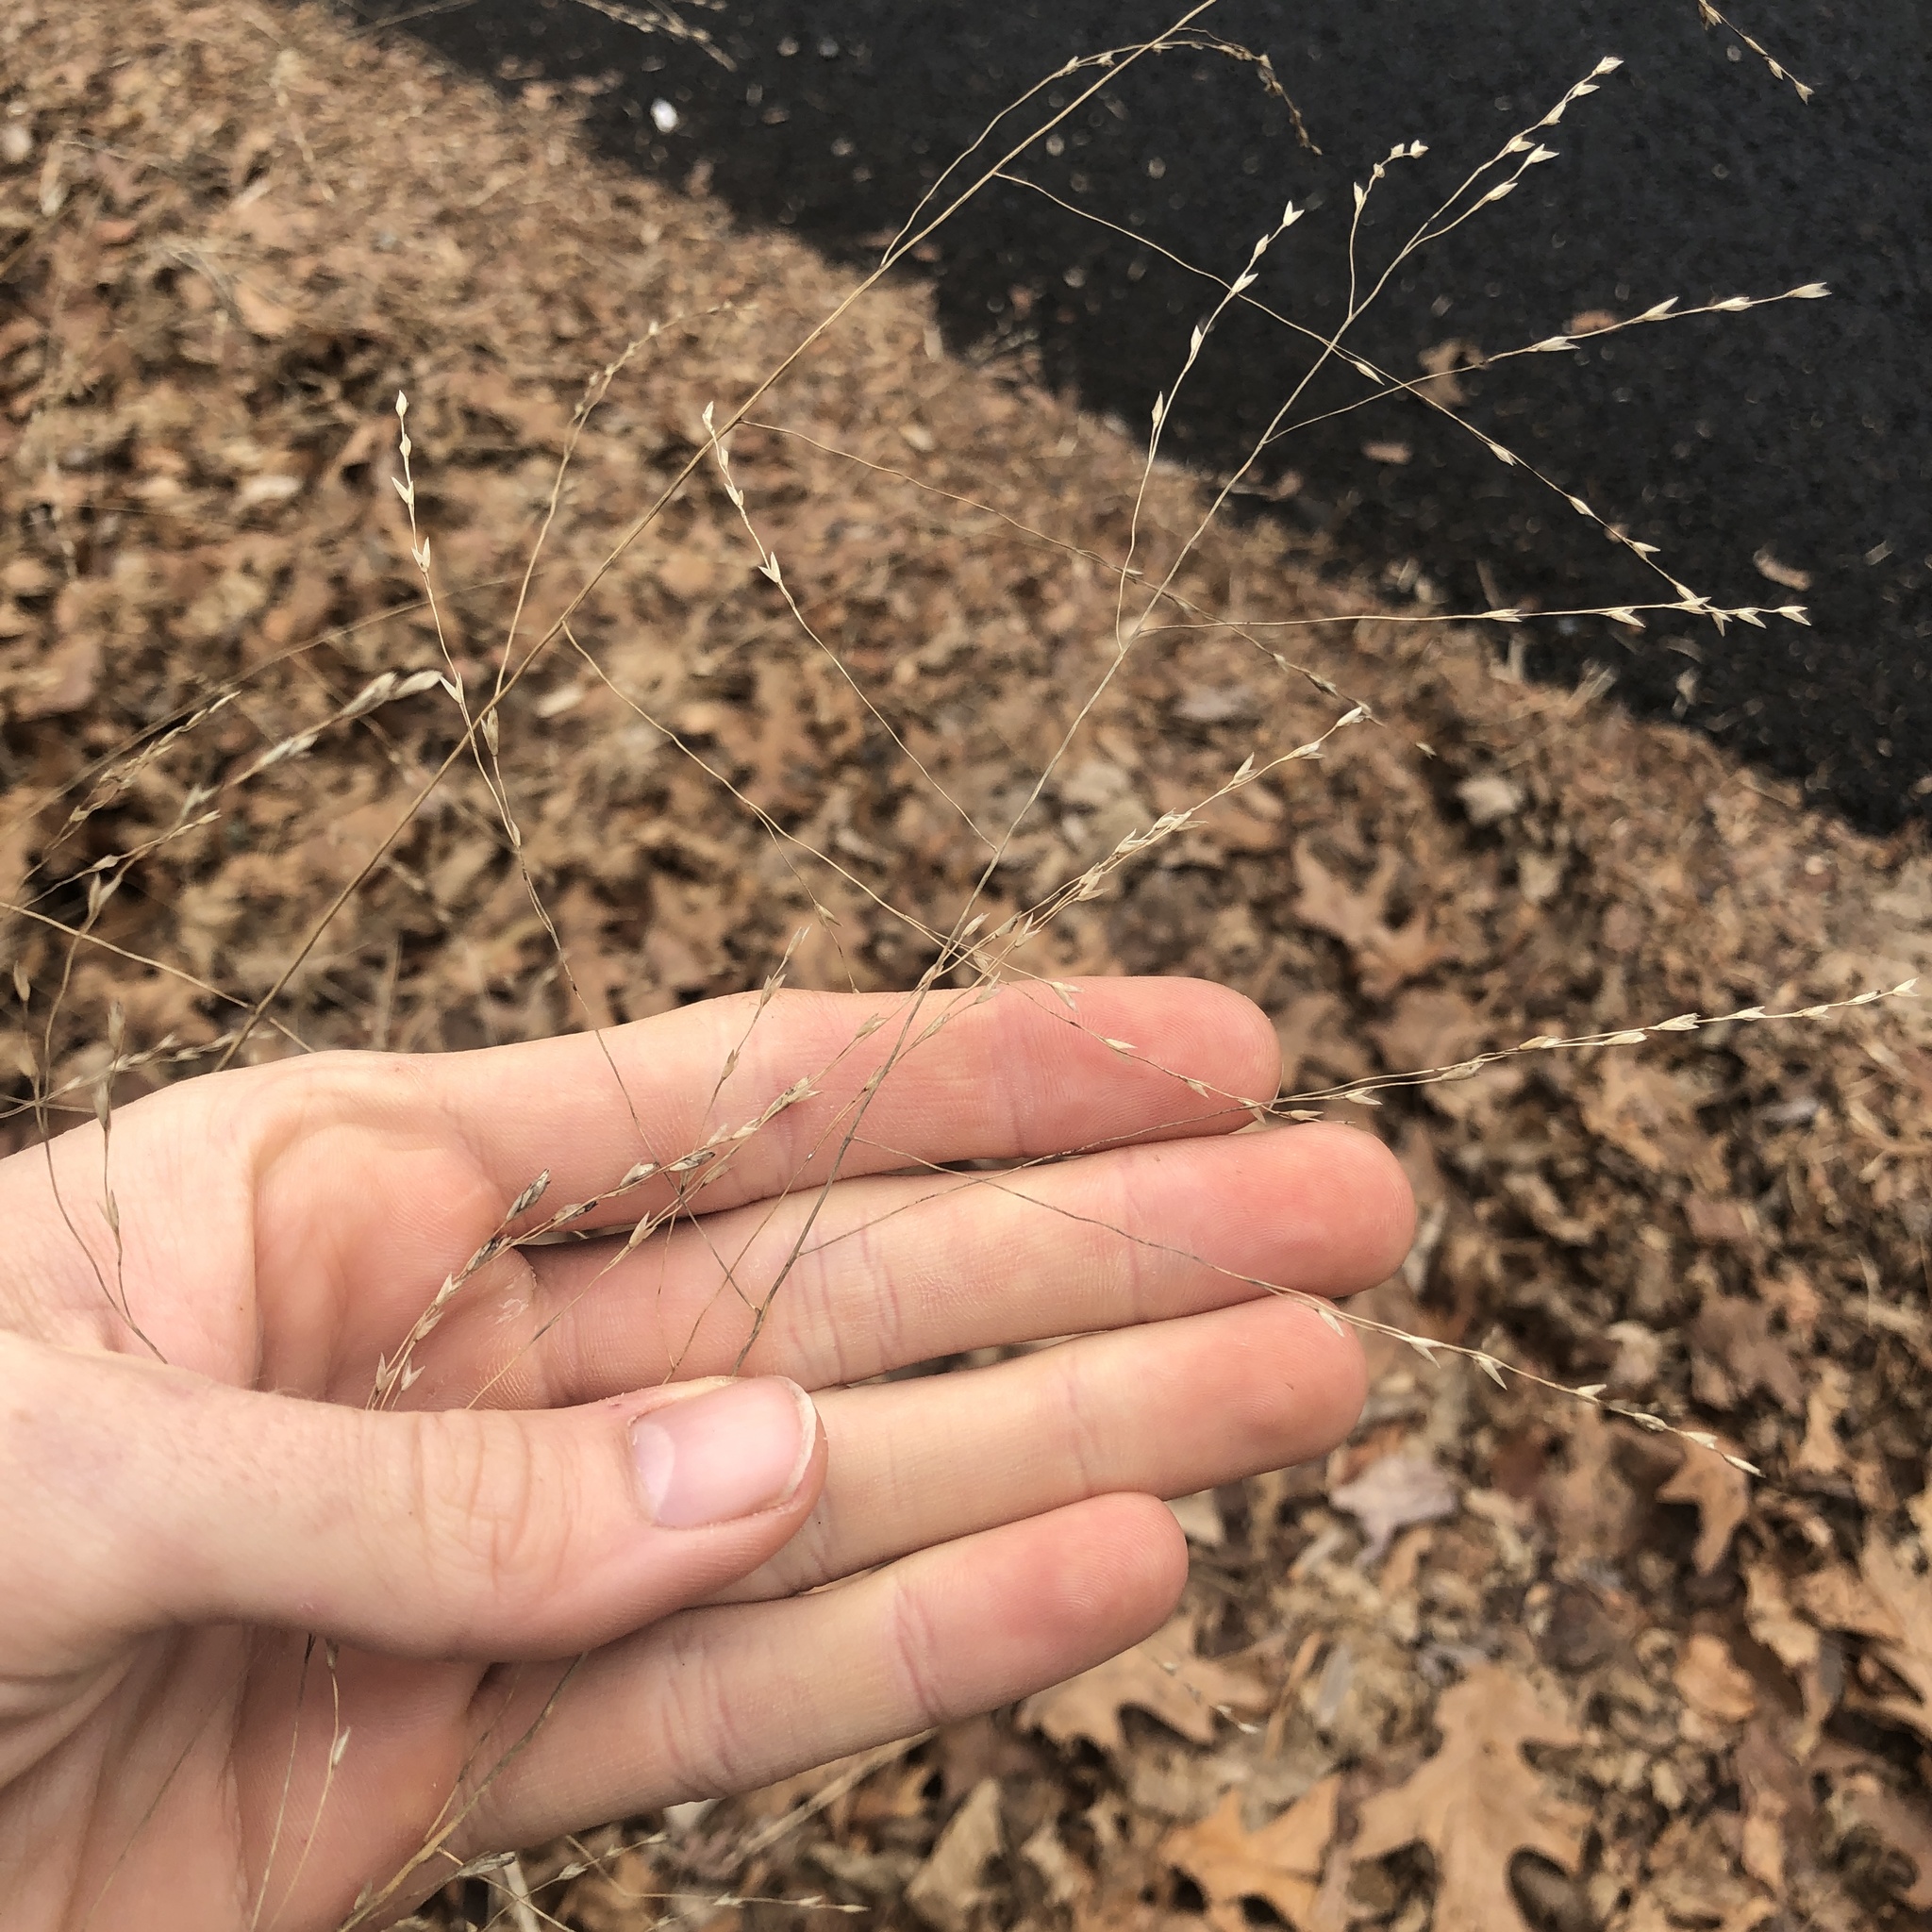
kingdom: Plantae
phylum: Tracheophyta
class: Liliopsida
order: Poales
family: Poaceae
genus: Tridens
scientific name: Tridens flavus
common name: Purpletop
